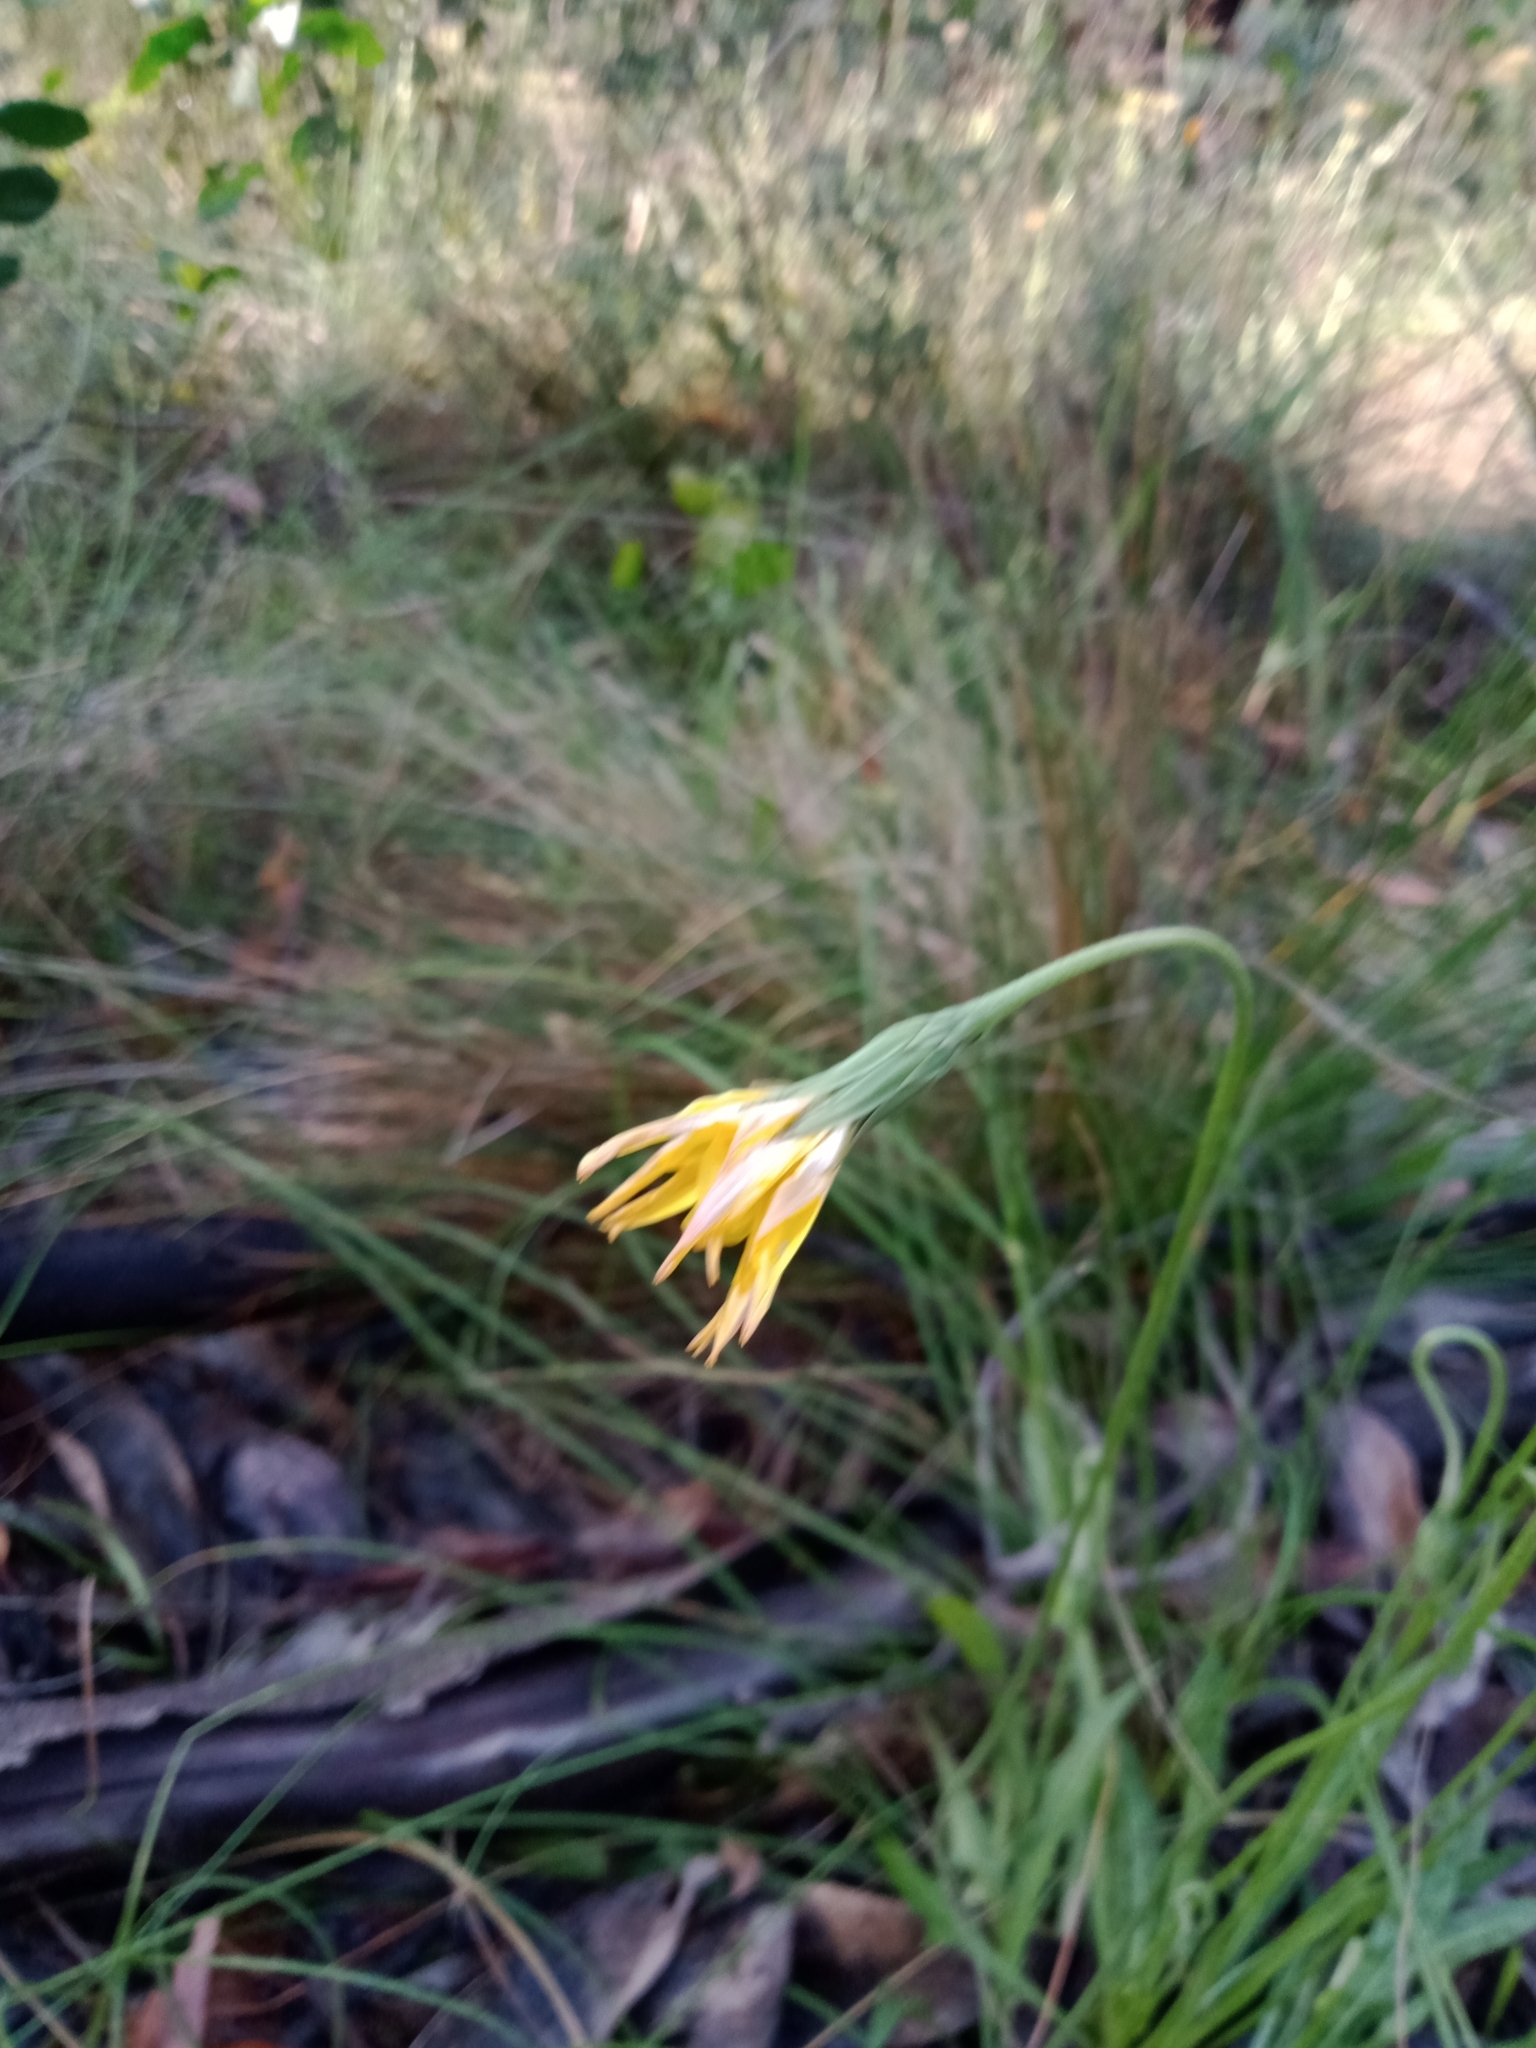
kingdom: Plantae
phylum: Tracheophyta
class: Magnoliopsida
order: Asterales
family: Asteraceae
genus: Microseris
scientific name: Microseris lanceolata
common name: Yam daisy
